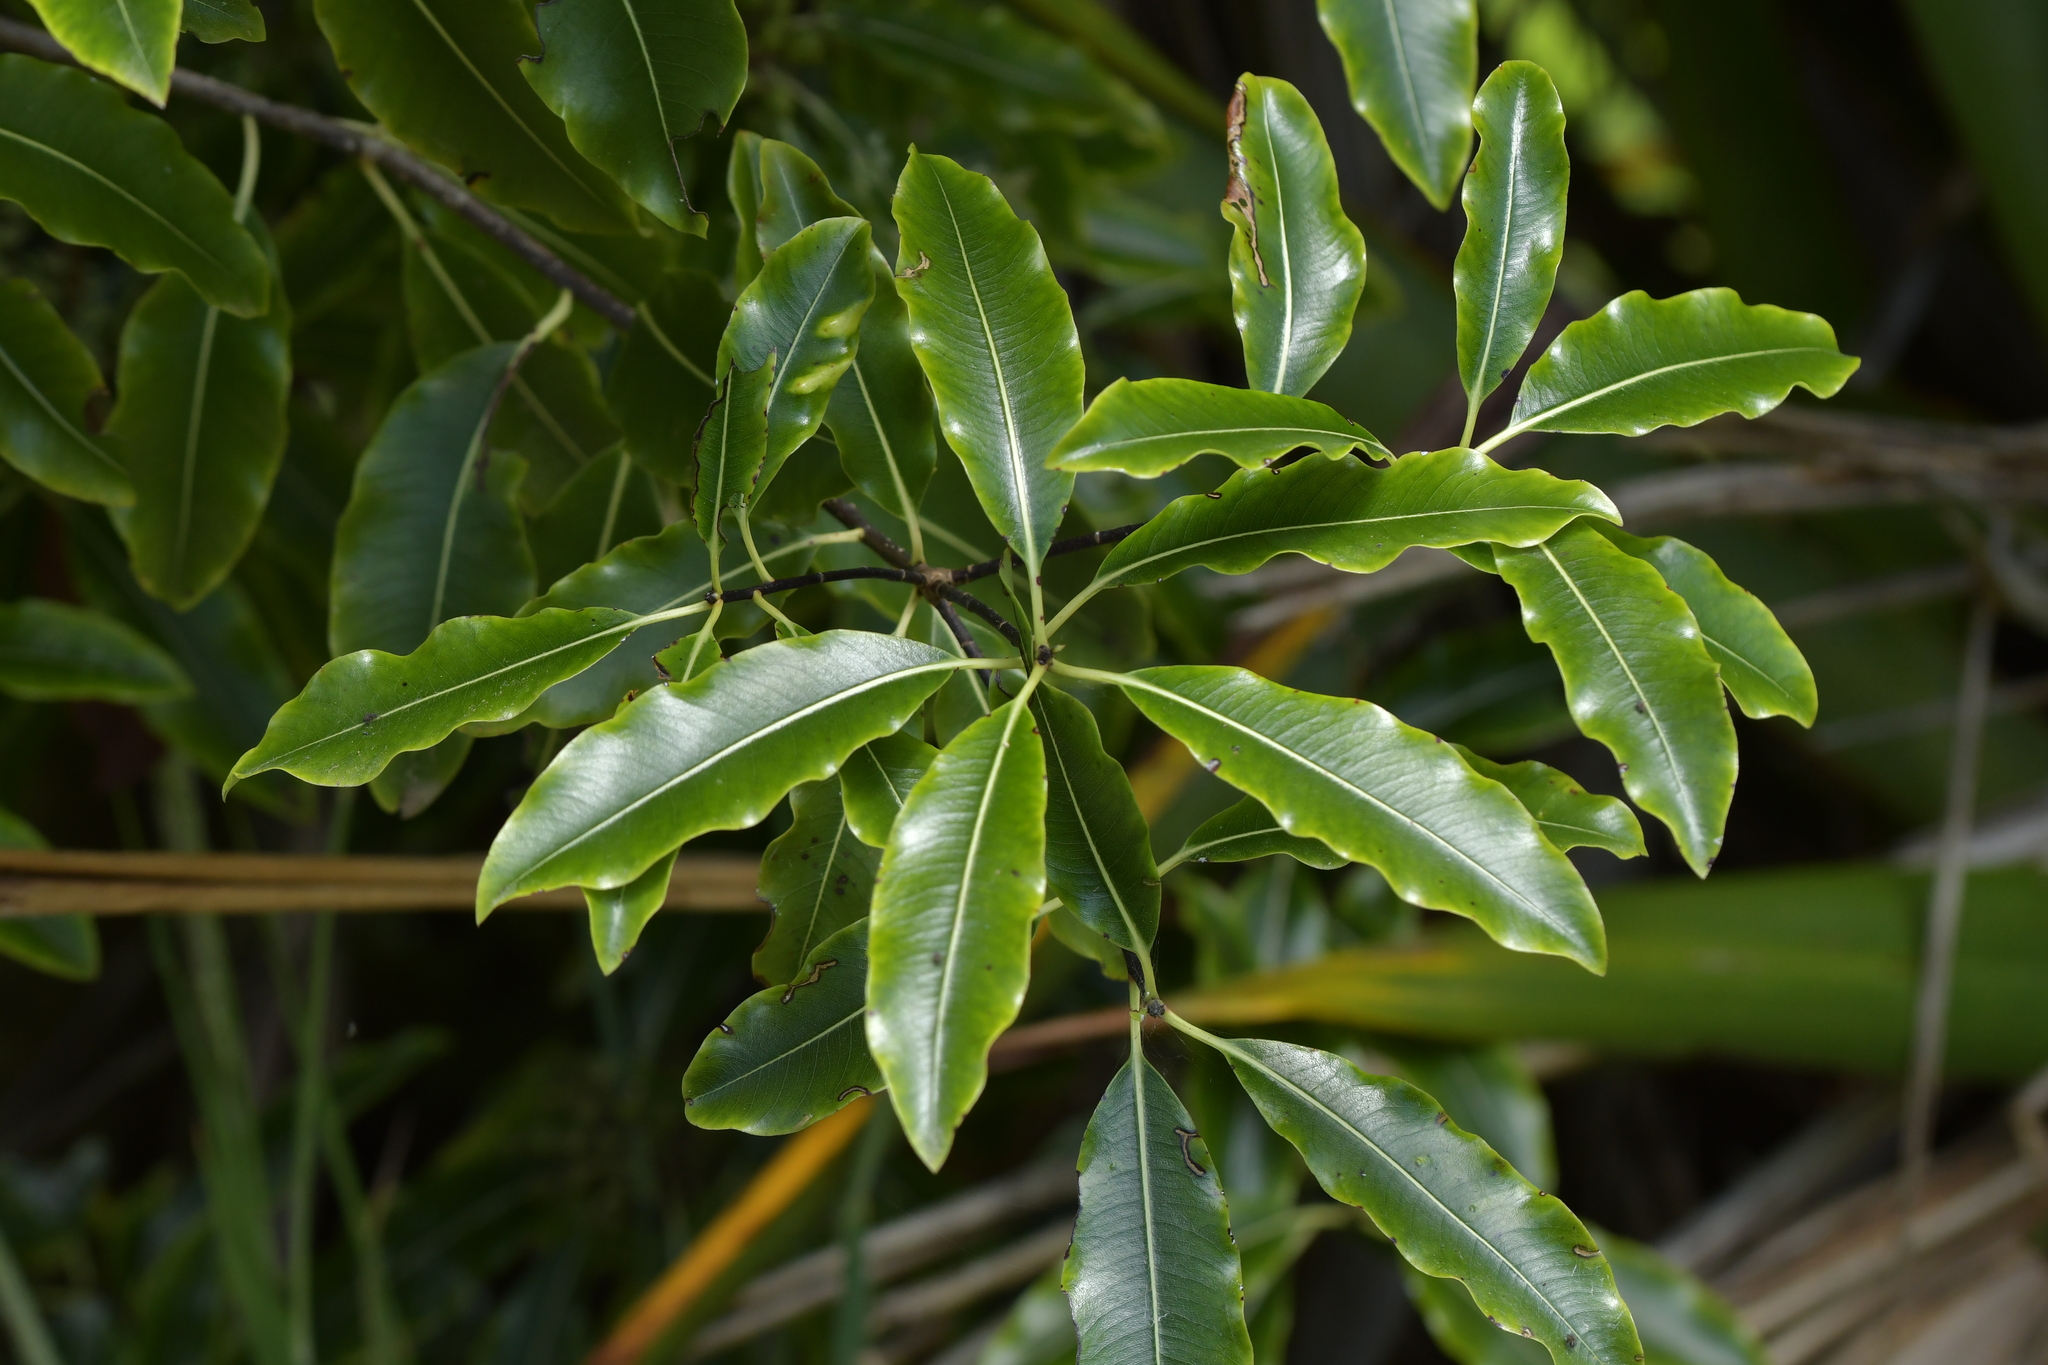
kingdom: Plantae
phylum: Tracheophyta
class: Magnoliopsida
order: Apiales
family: Pittosporaceae
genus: Pittosporum
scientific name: Pittosporum eugenioides
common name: Lemonwood
